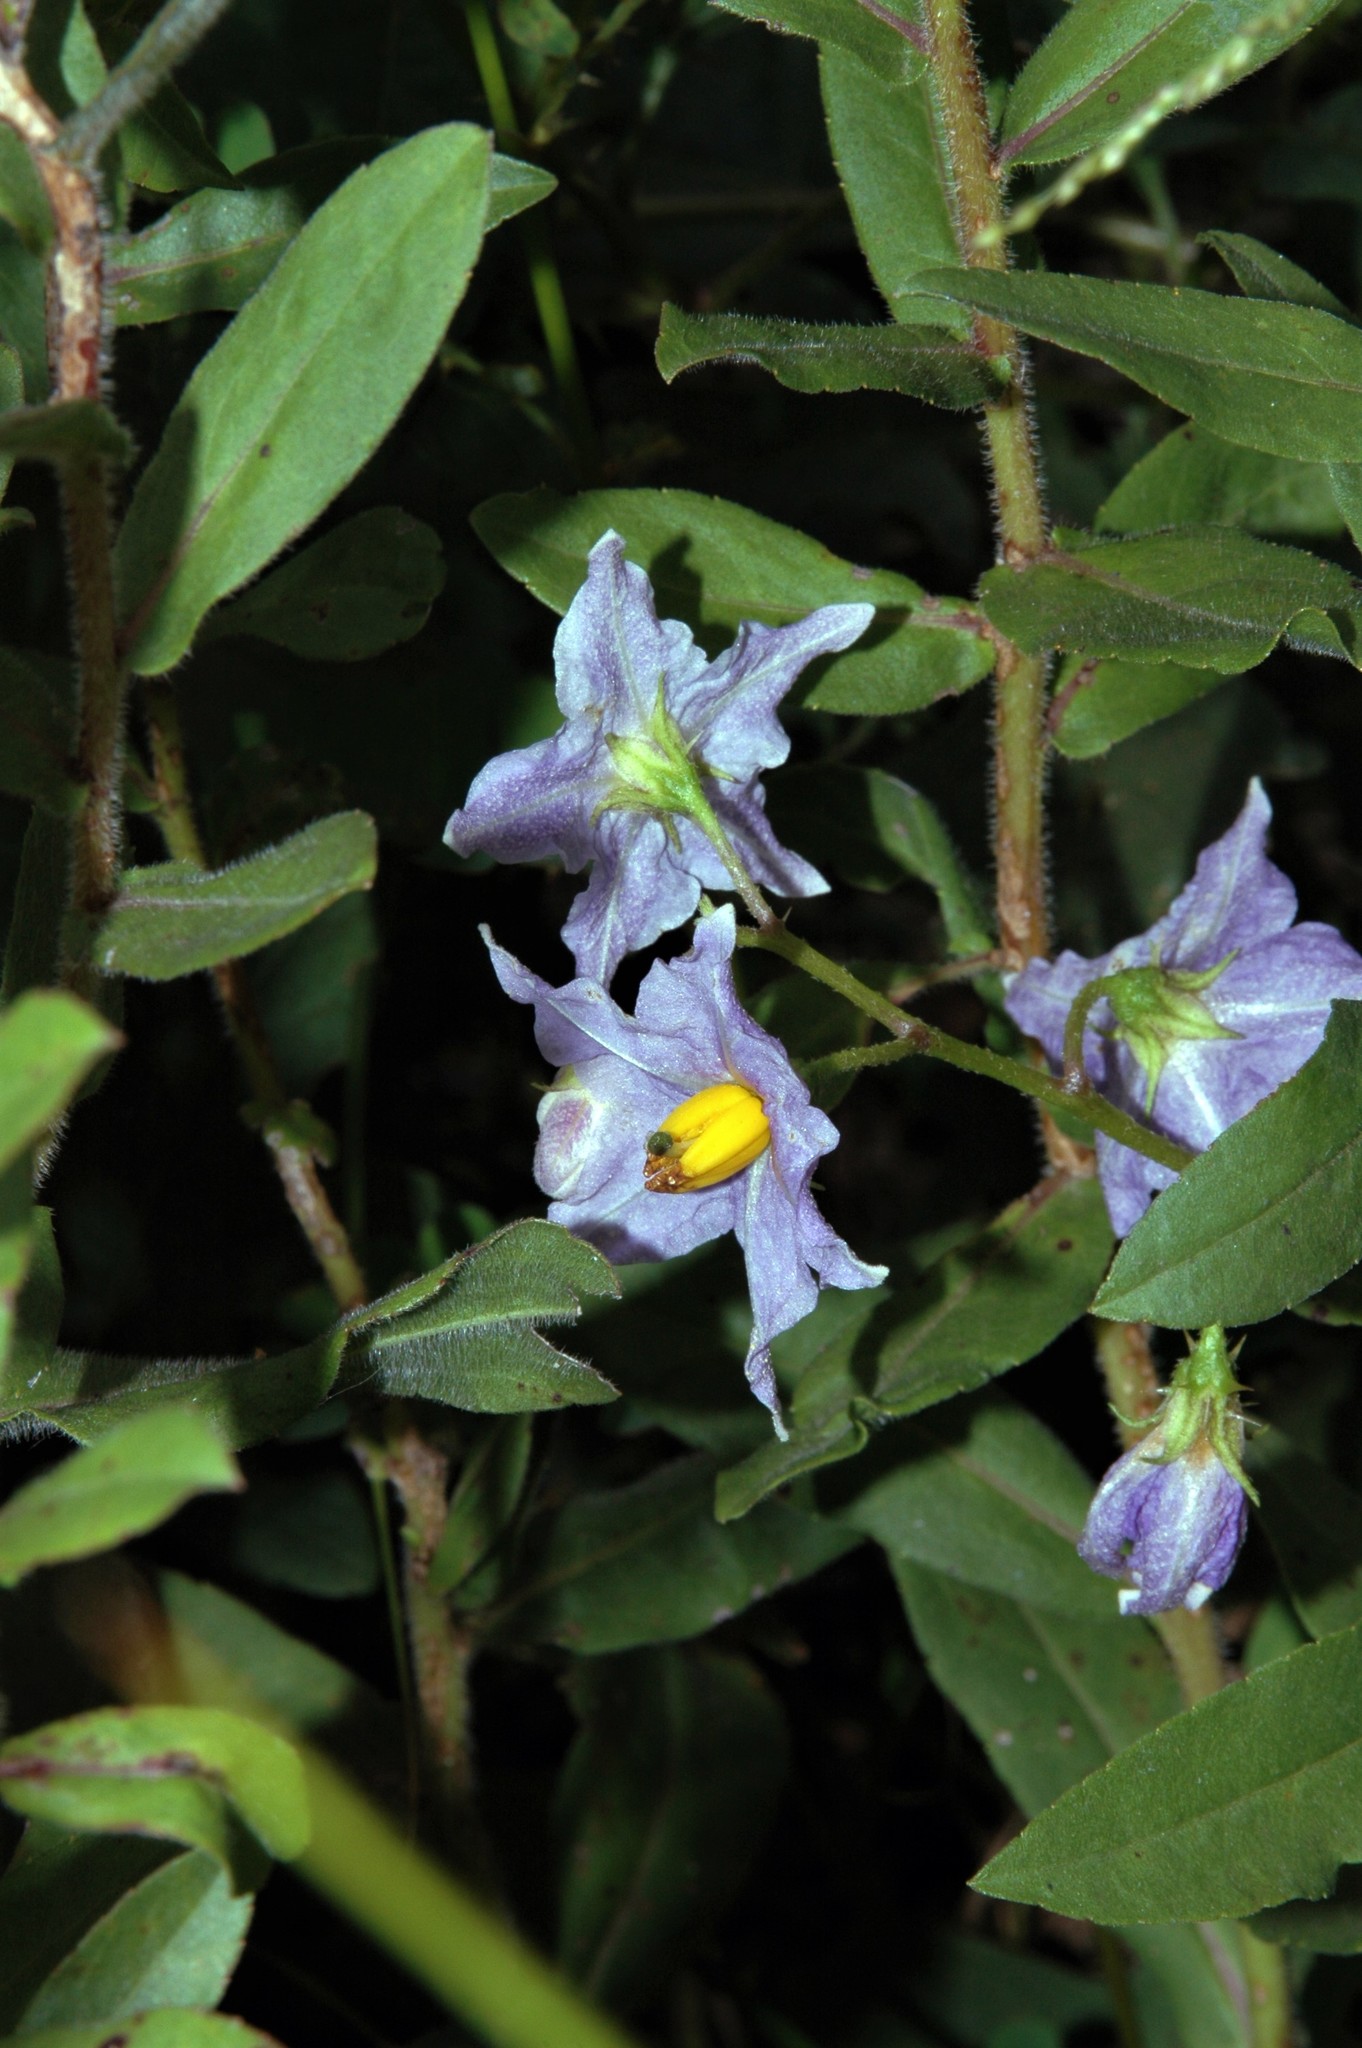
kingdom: Plantae
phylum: Tracheophyta
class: Magnoliopsida
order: Solanales
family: Solanaceae
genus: Solanum
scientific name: Solanum carolinense
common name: Horse-nettle
